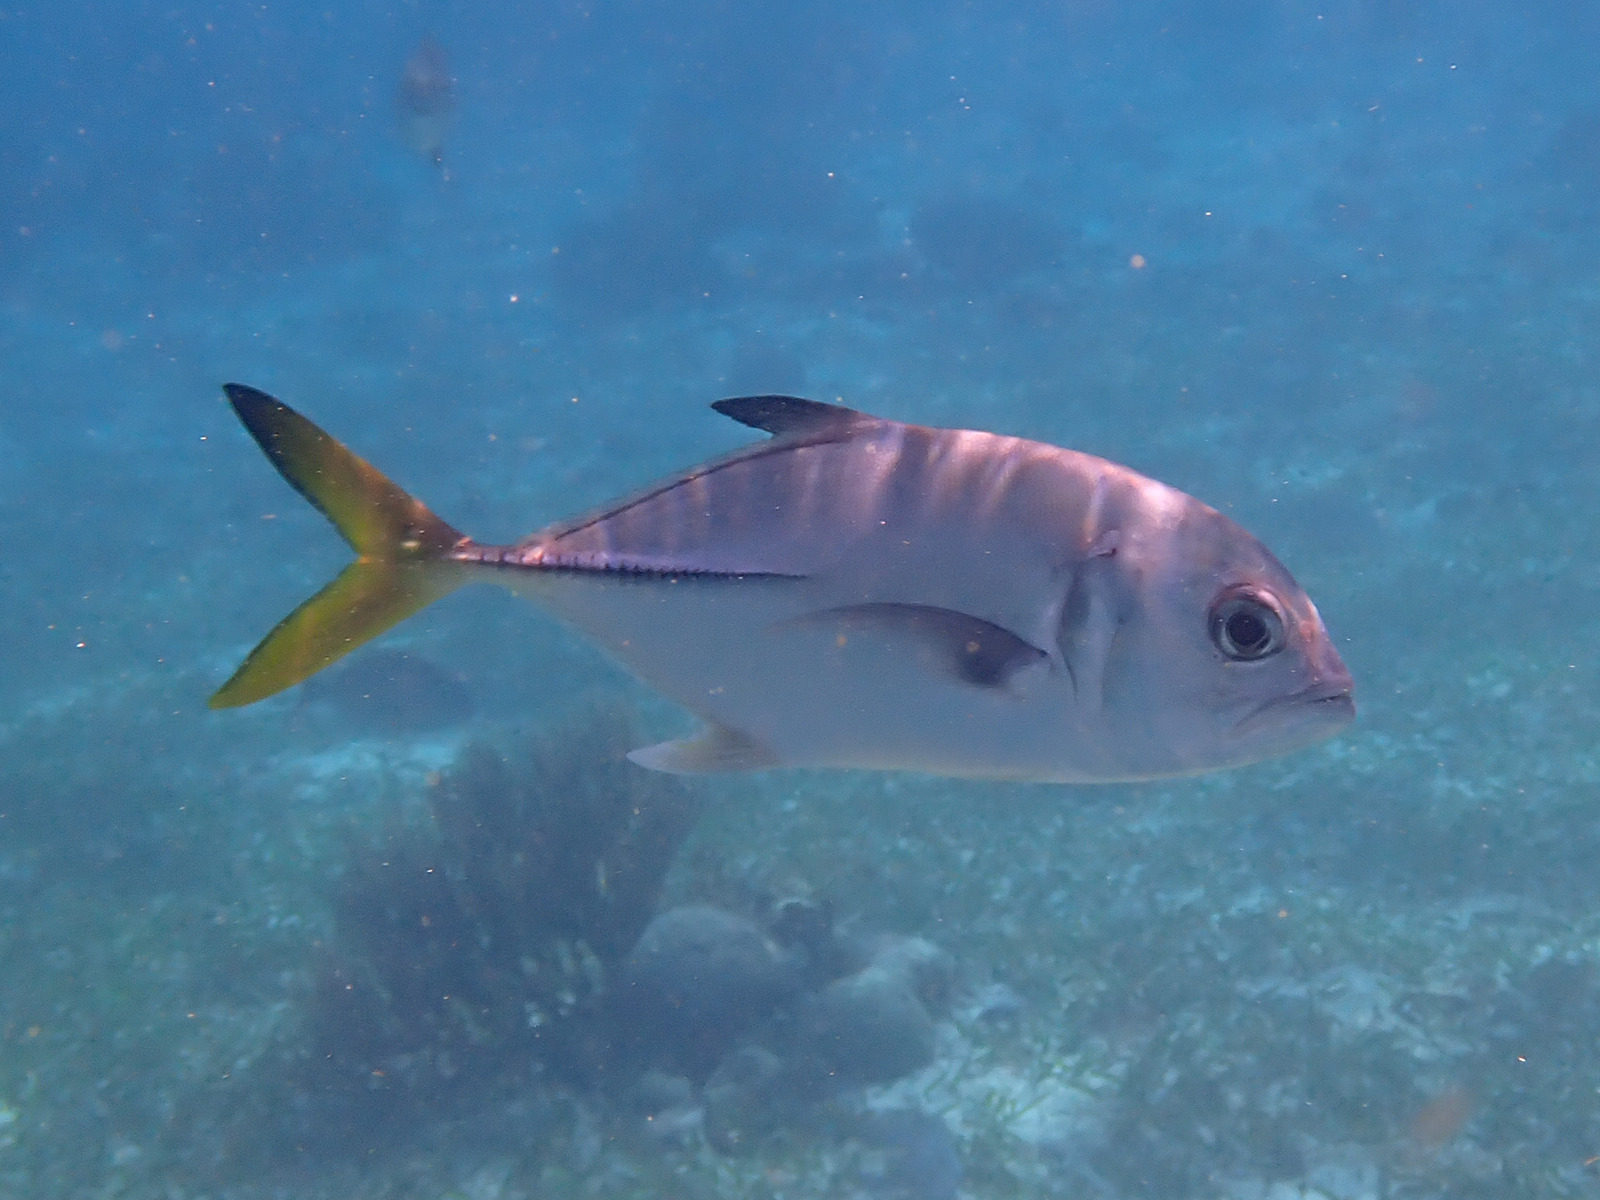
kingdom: Animalia
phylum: Chordata
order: Perciformes
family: Carangidae
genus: Caranx
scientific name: Caranx latus
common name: Horse eye jack
